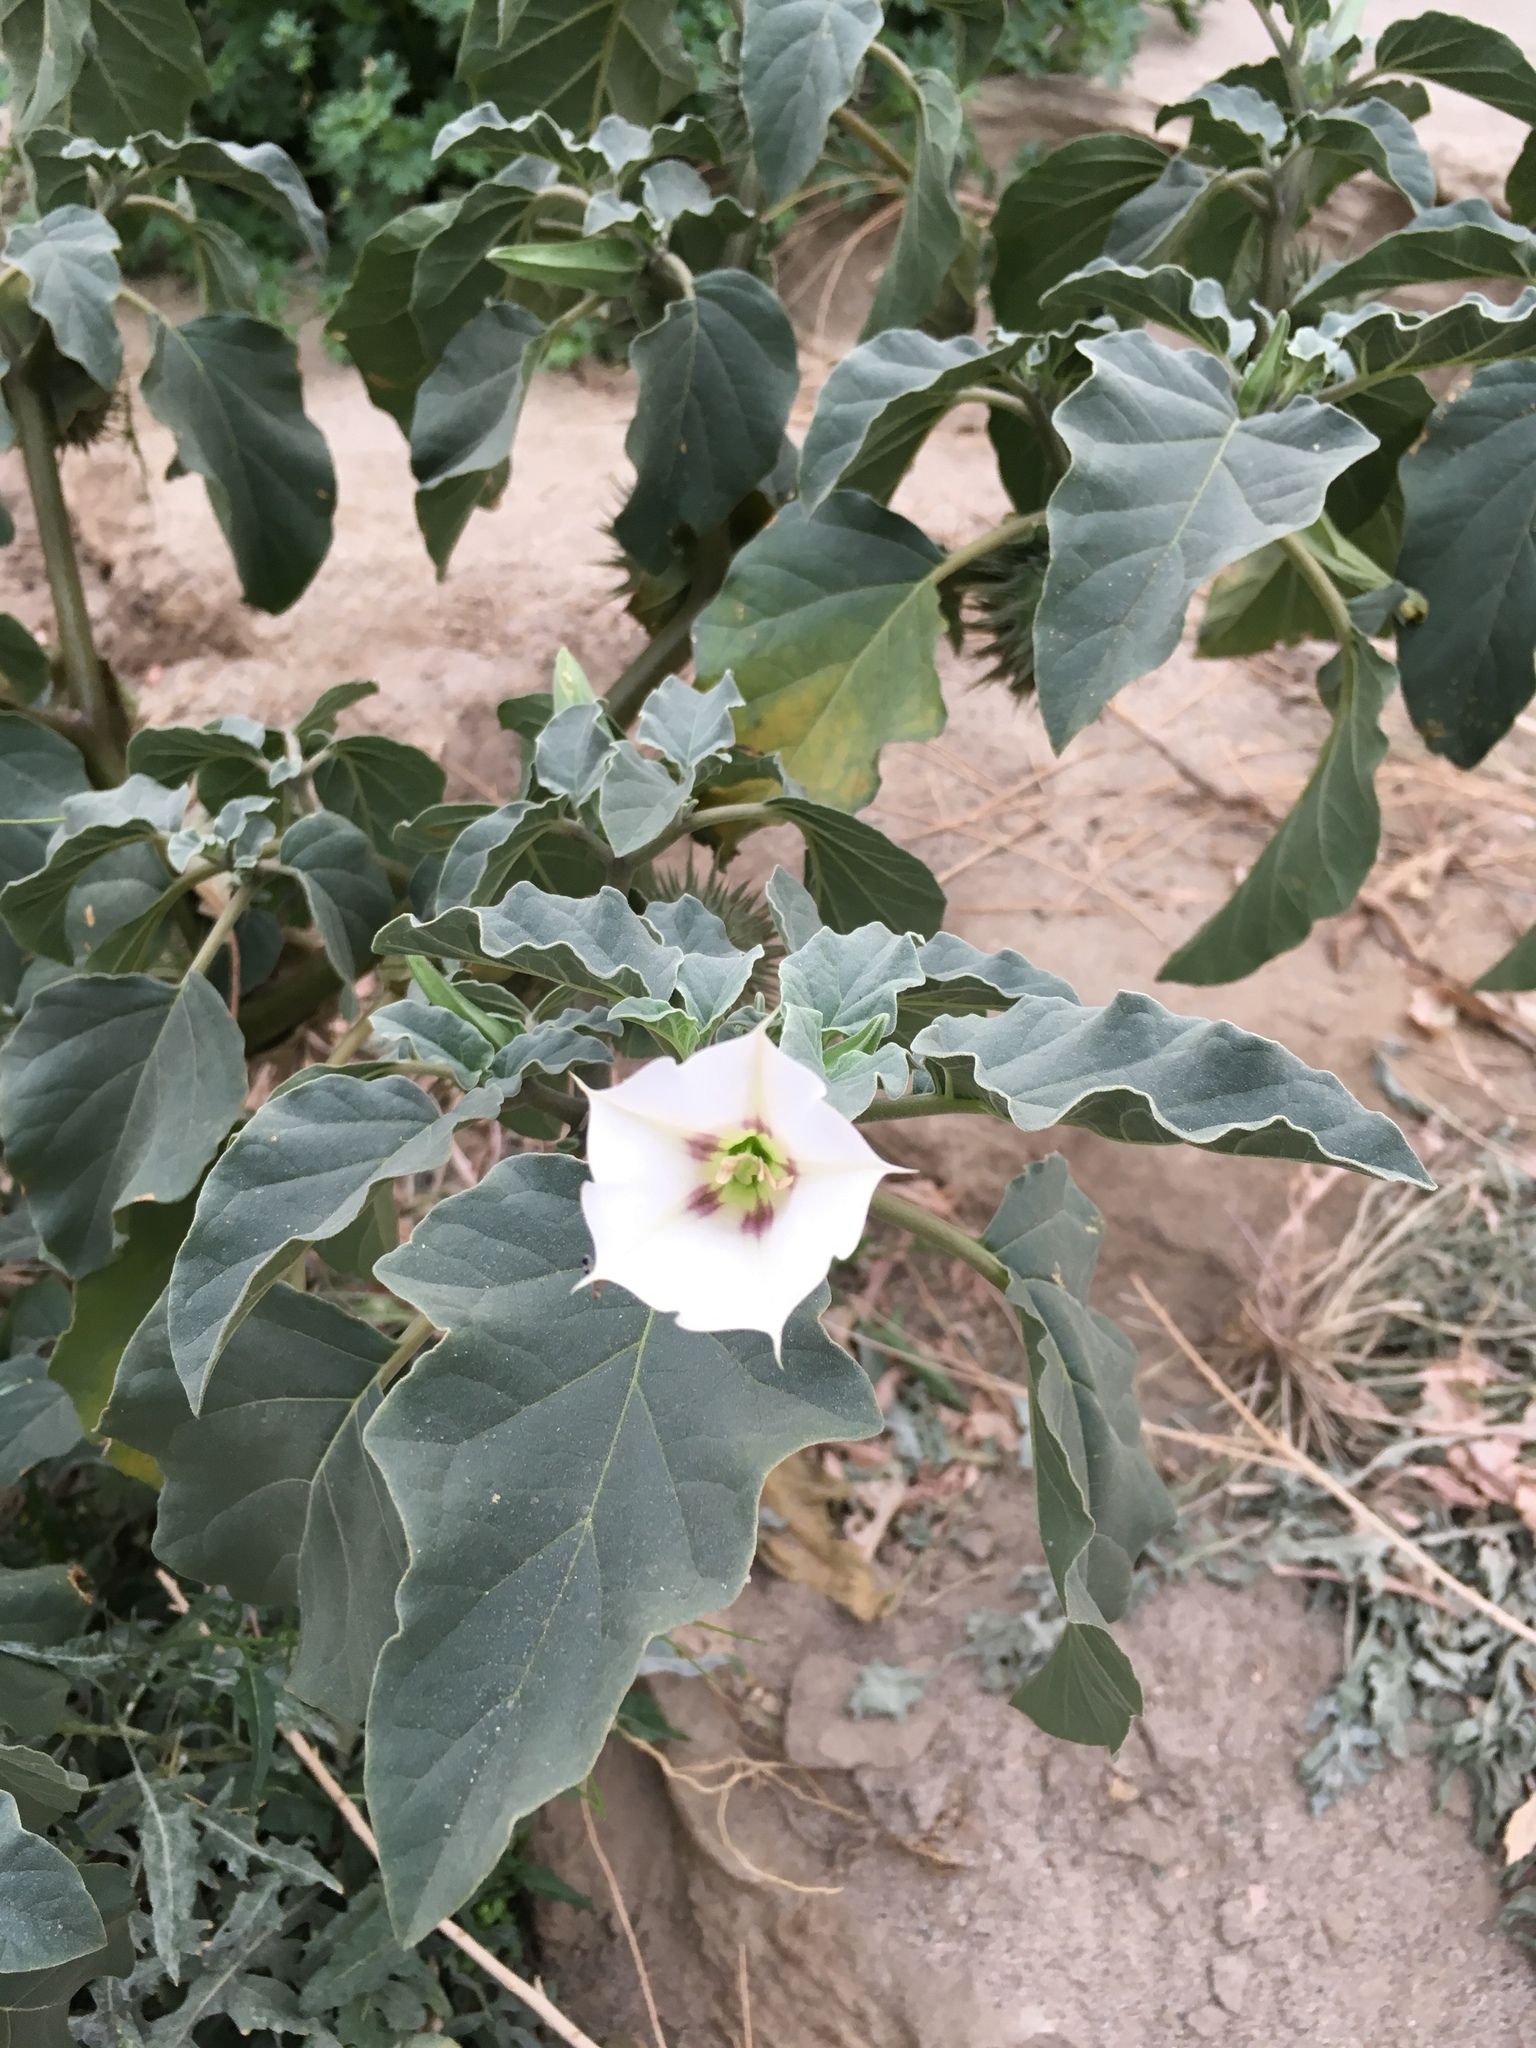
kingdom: Plantae
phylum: Tracheophyta
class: Magnoliopsida
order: Solanales
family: Solanaceae
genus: Datura
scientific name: Datura discolor
